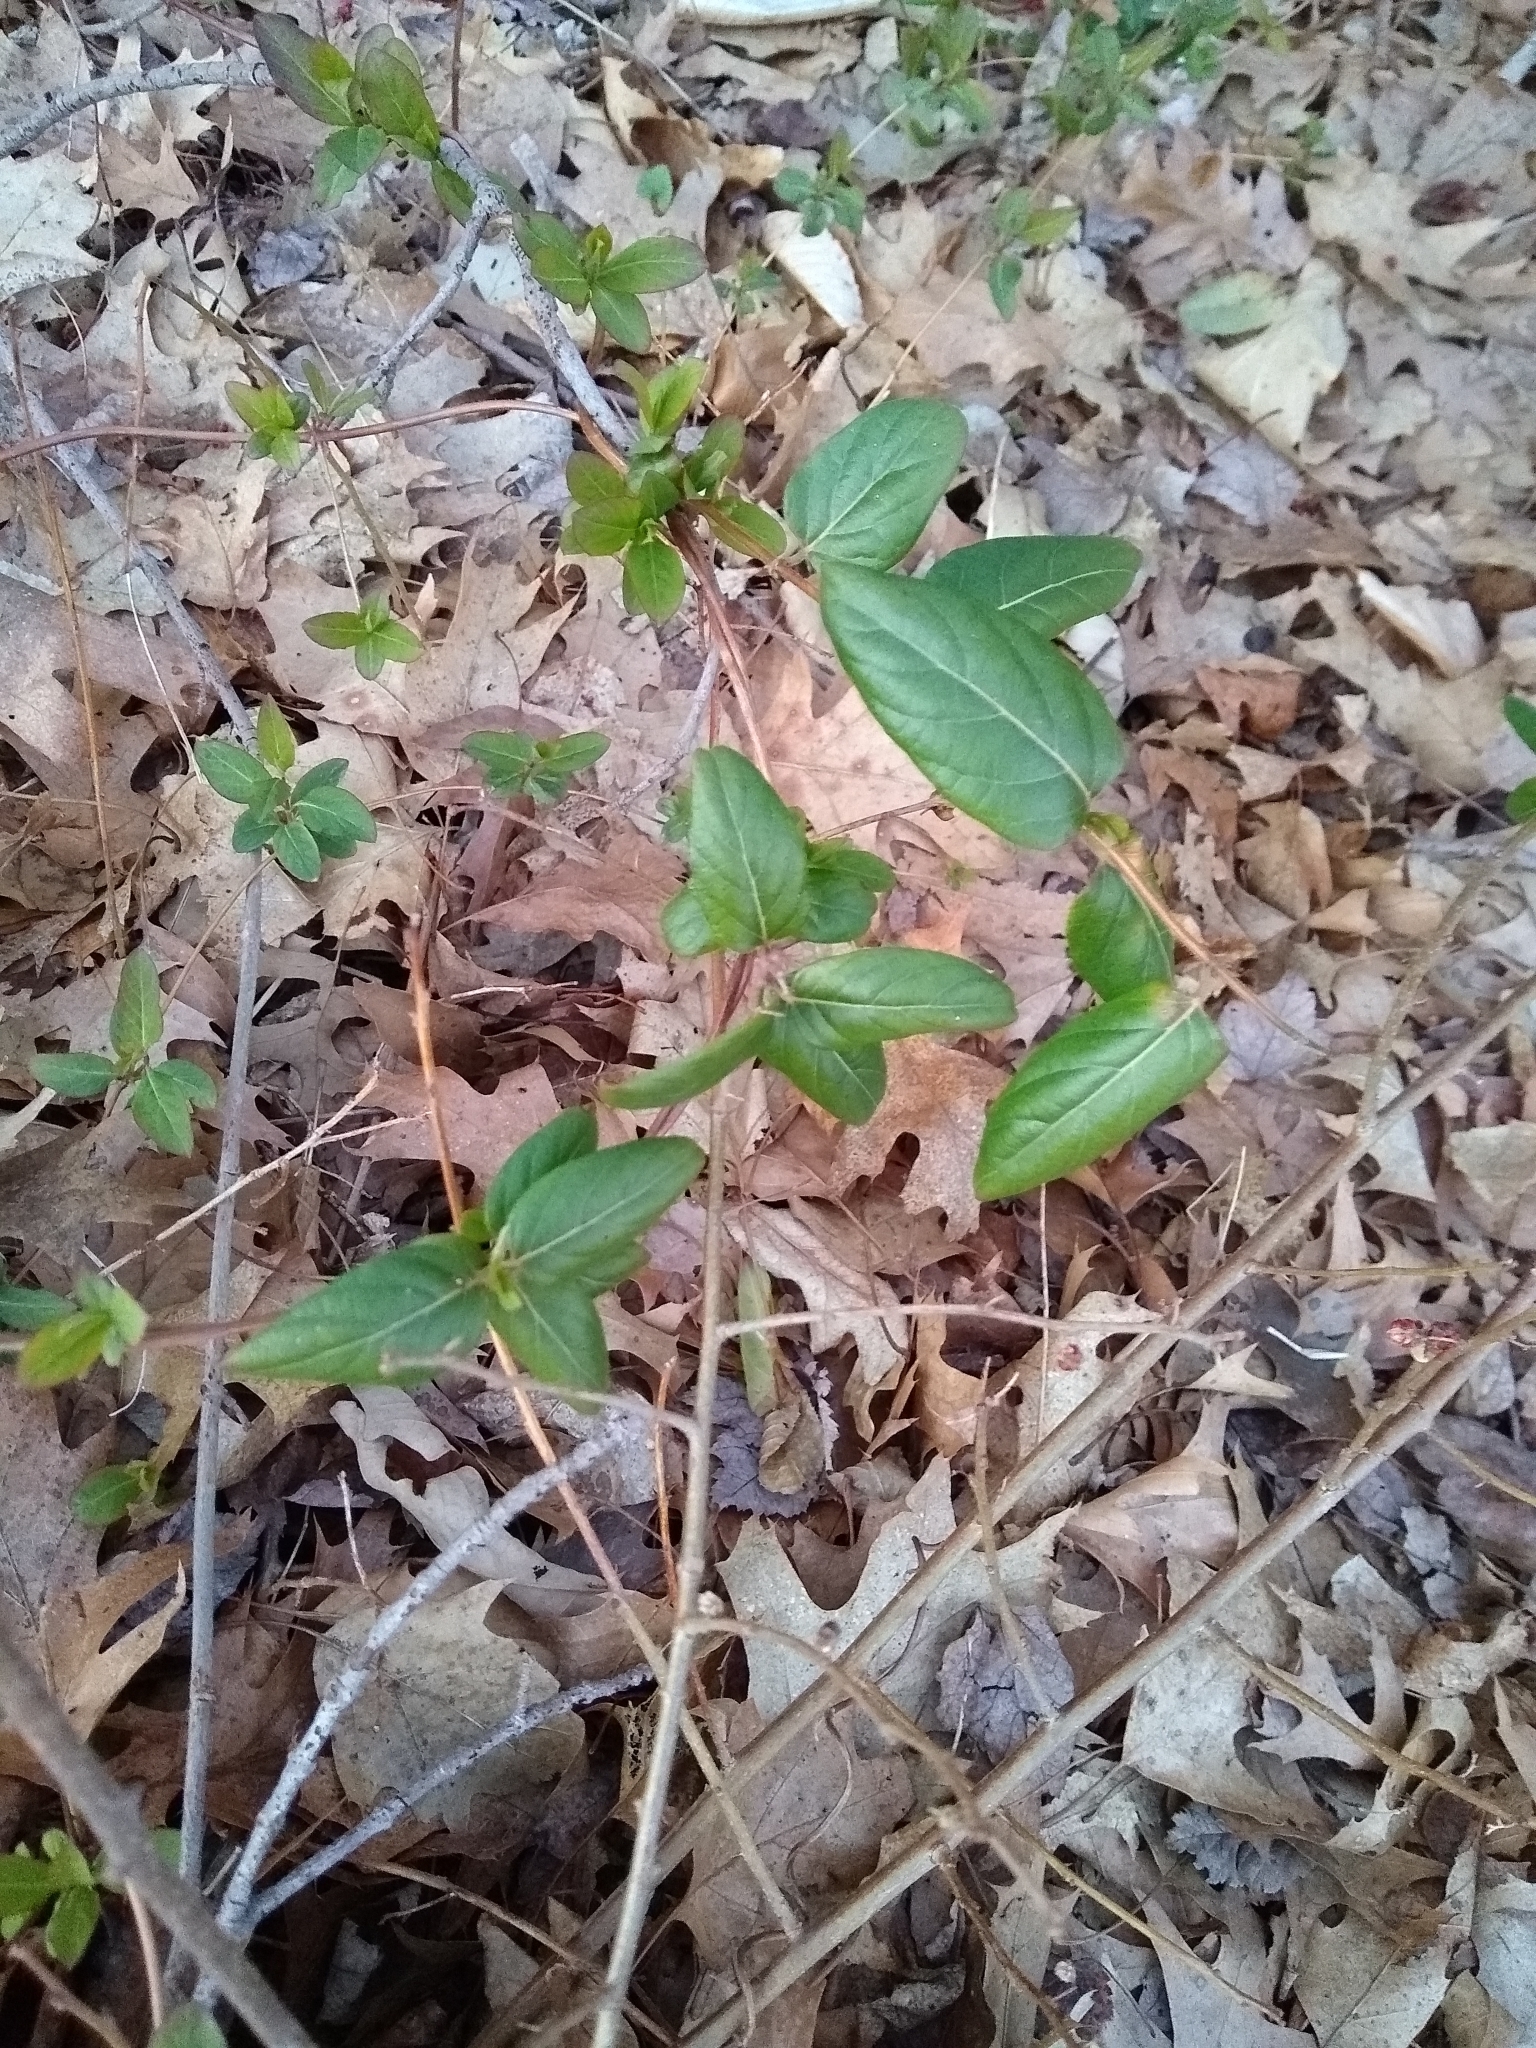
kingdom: Plantae
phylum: Tracheophyta
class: Magnoliopsida
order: Dipsacales
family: Caprifoliaceae
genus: Lonicera
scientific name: Lonicera japonica
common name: Japanese honeysuckle
